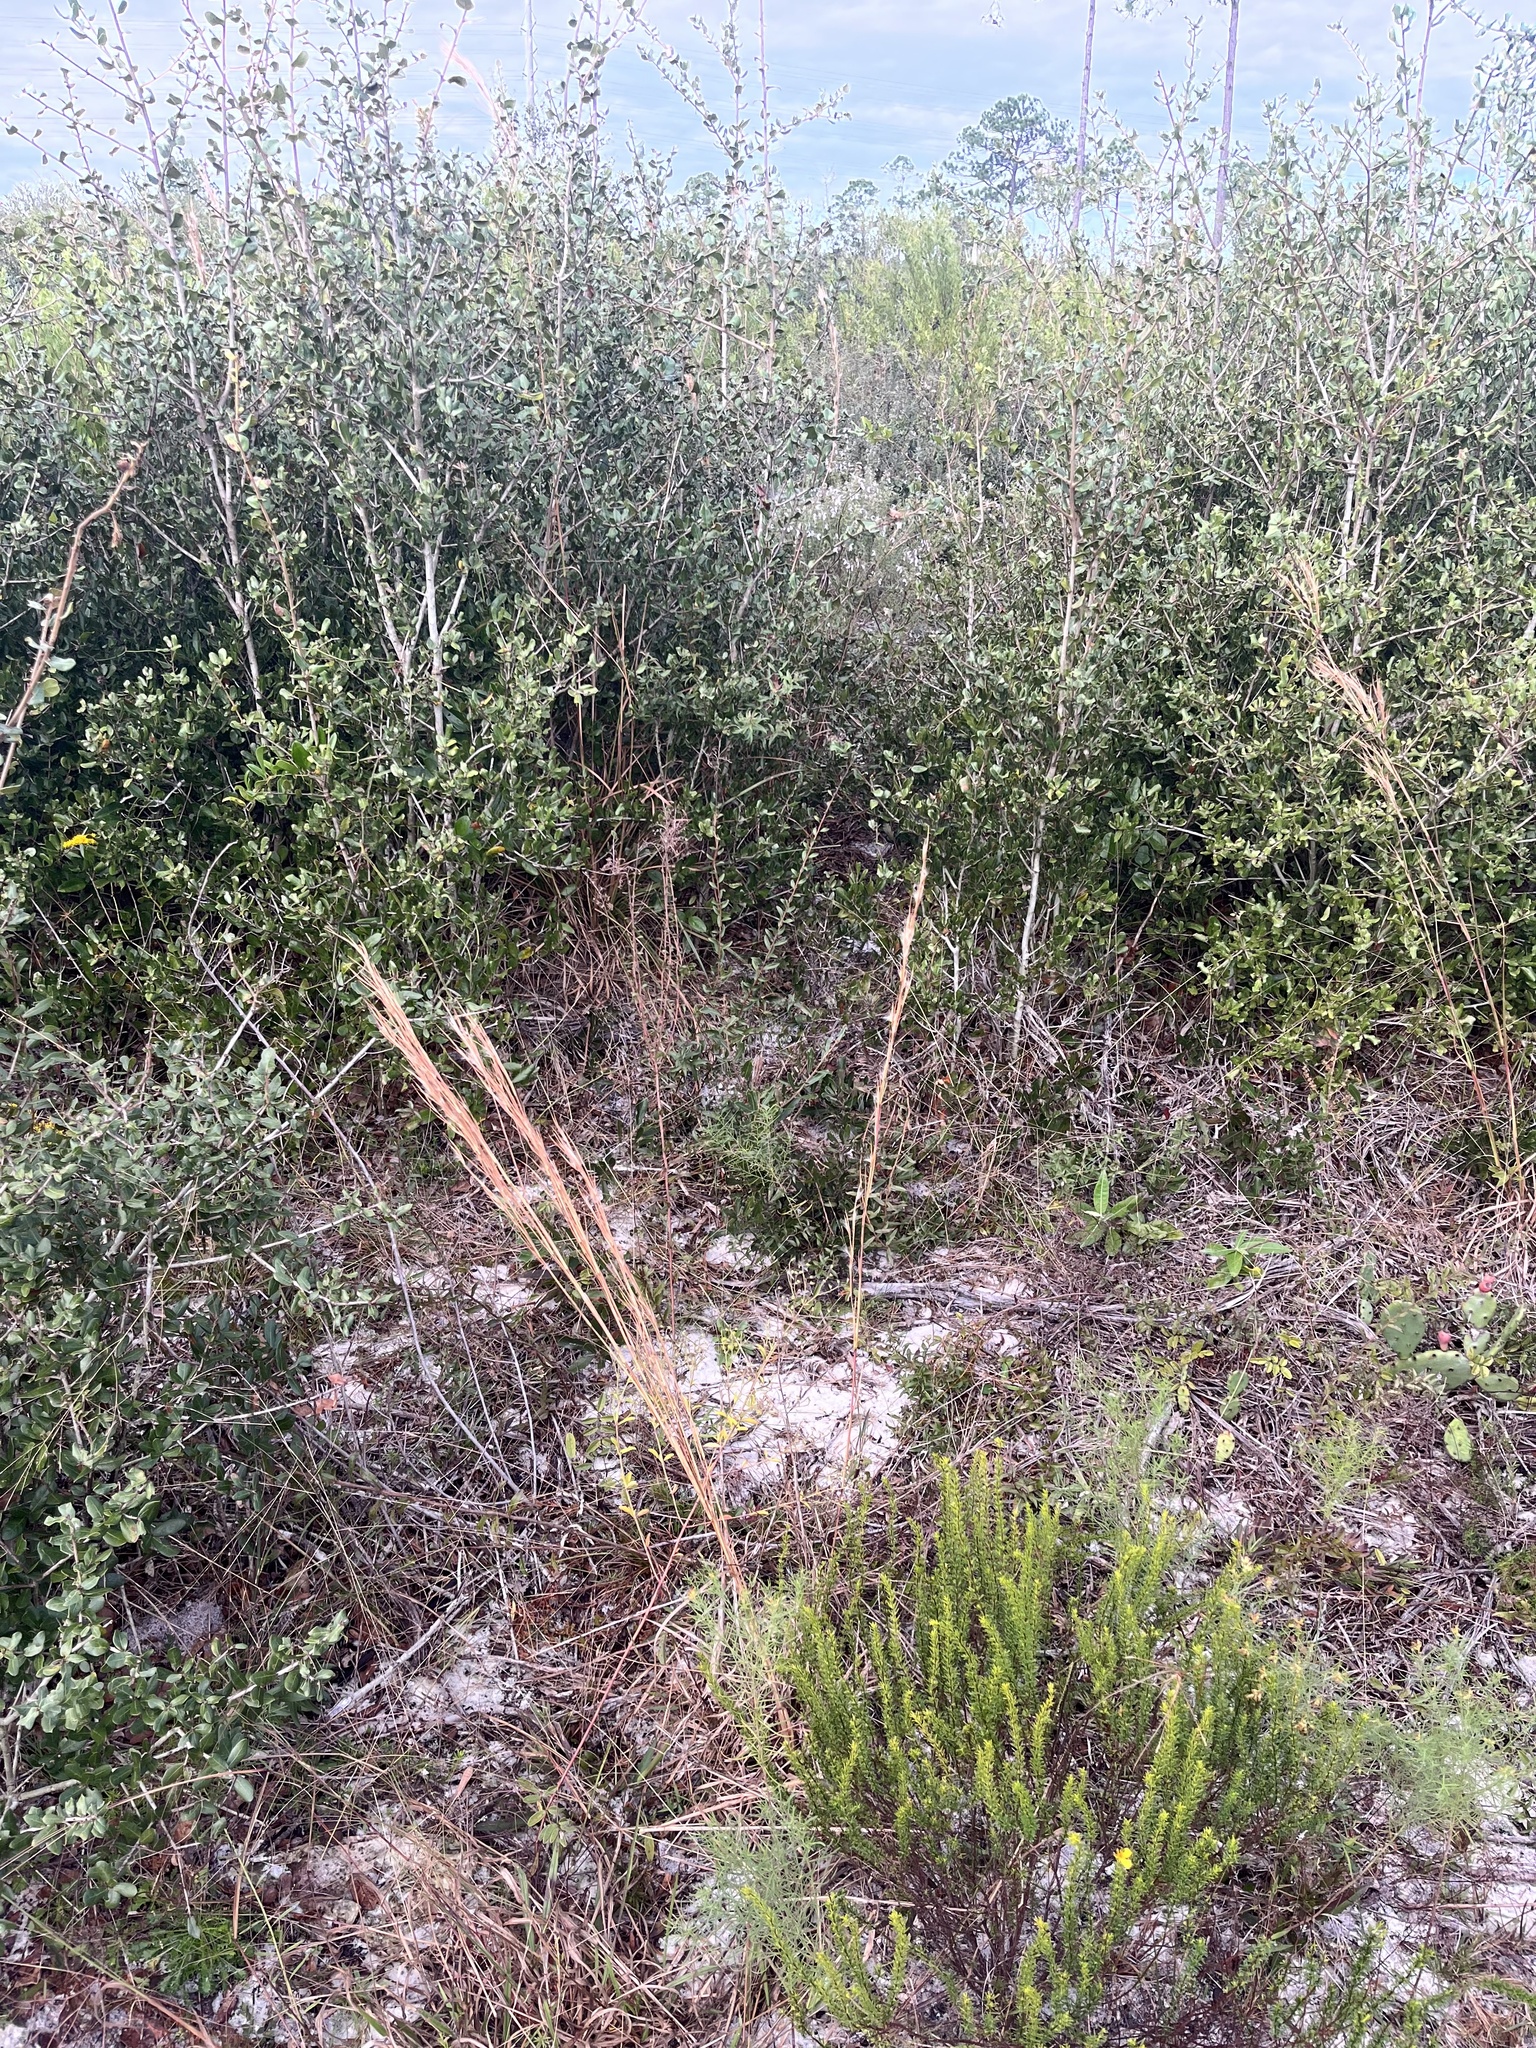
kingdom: Plantae
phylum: Tracheophyta
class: Magnoliopsida
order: Lamiales
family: Lamiaceae
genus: Trichostema
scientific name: Trichostema gracile
